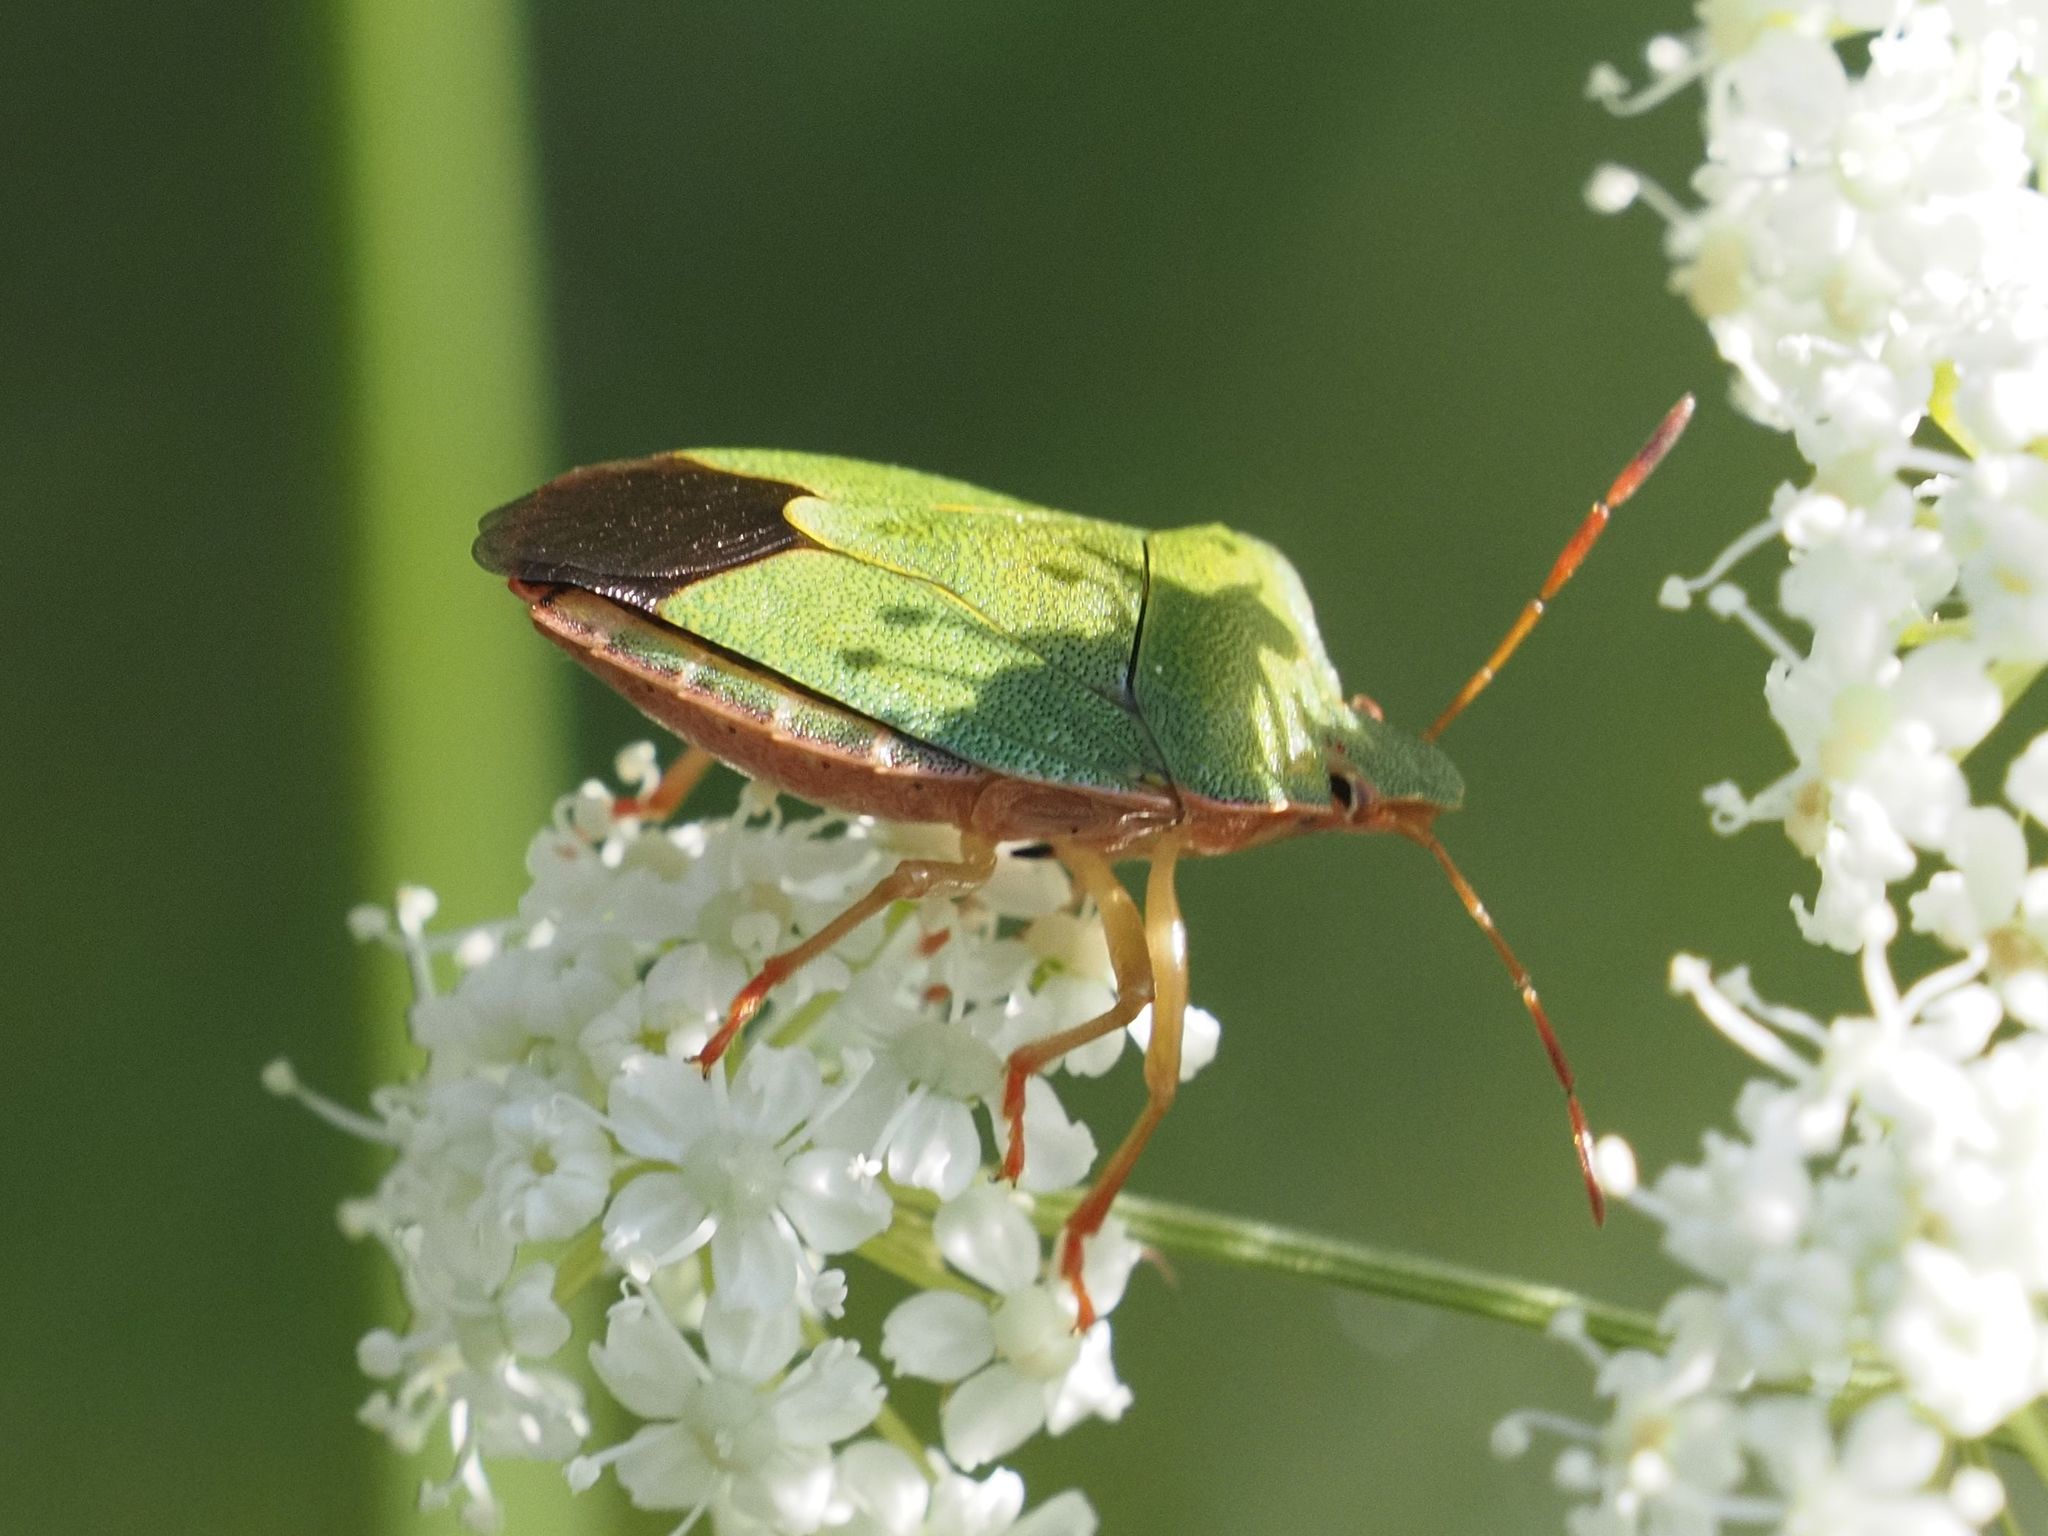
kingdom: Animalia
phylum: Arthropoda
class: Insecta
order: Hemiptera
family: Pentatomidae
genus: Palomena
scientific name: Palomena prasina
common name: Green shieldbug
